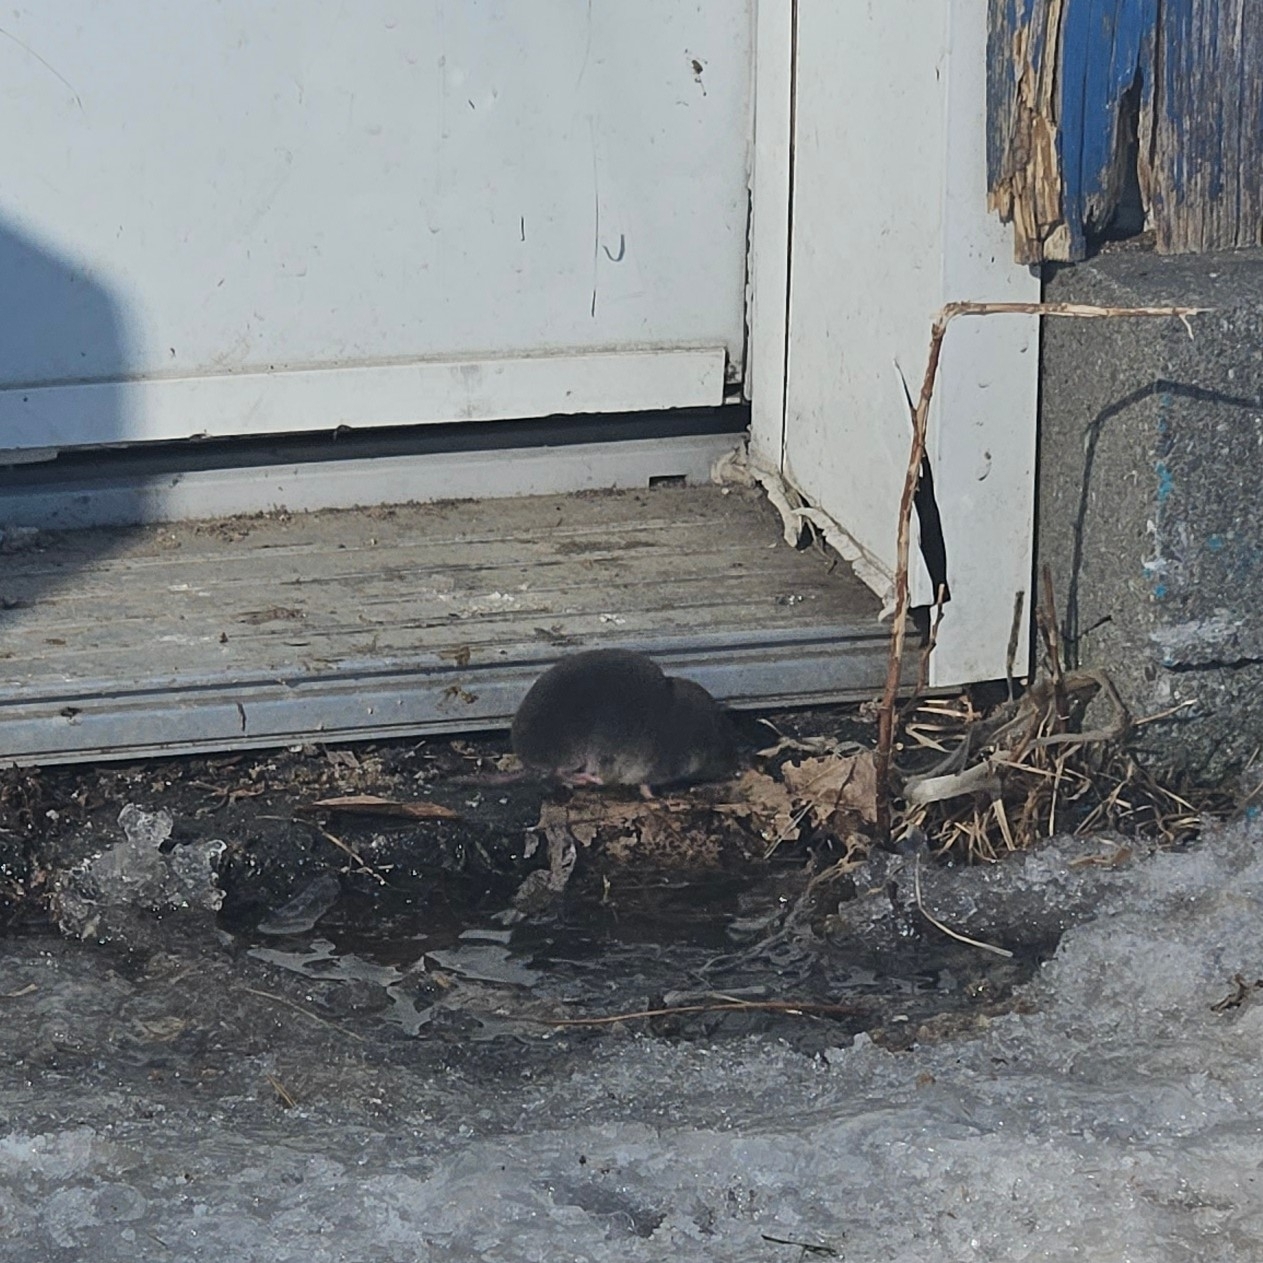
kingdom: Animalia
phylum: Chordata
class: Mammalia
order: Soricomorpha
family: Soricidae
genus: Blarina
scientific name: Blarina brevicauda
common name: Northern short-tailed shrew
